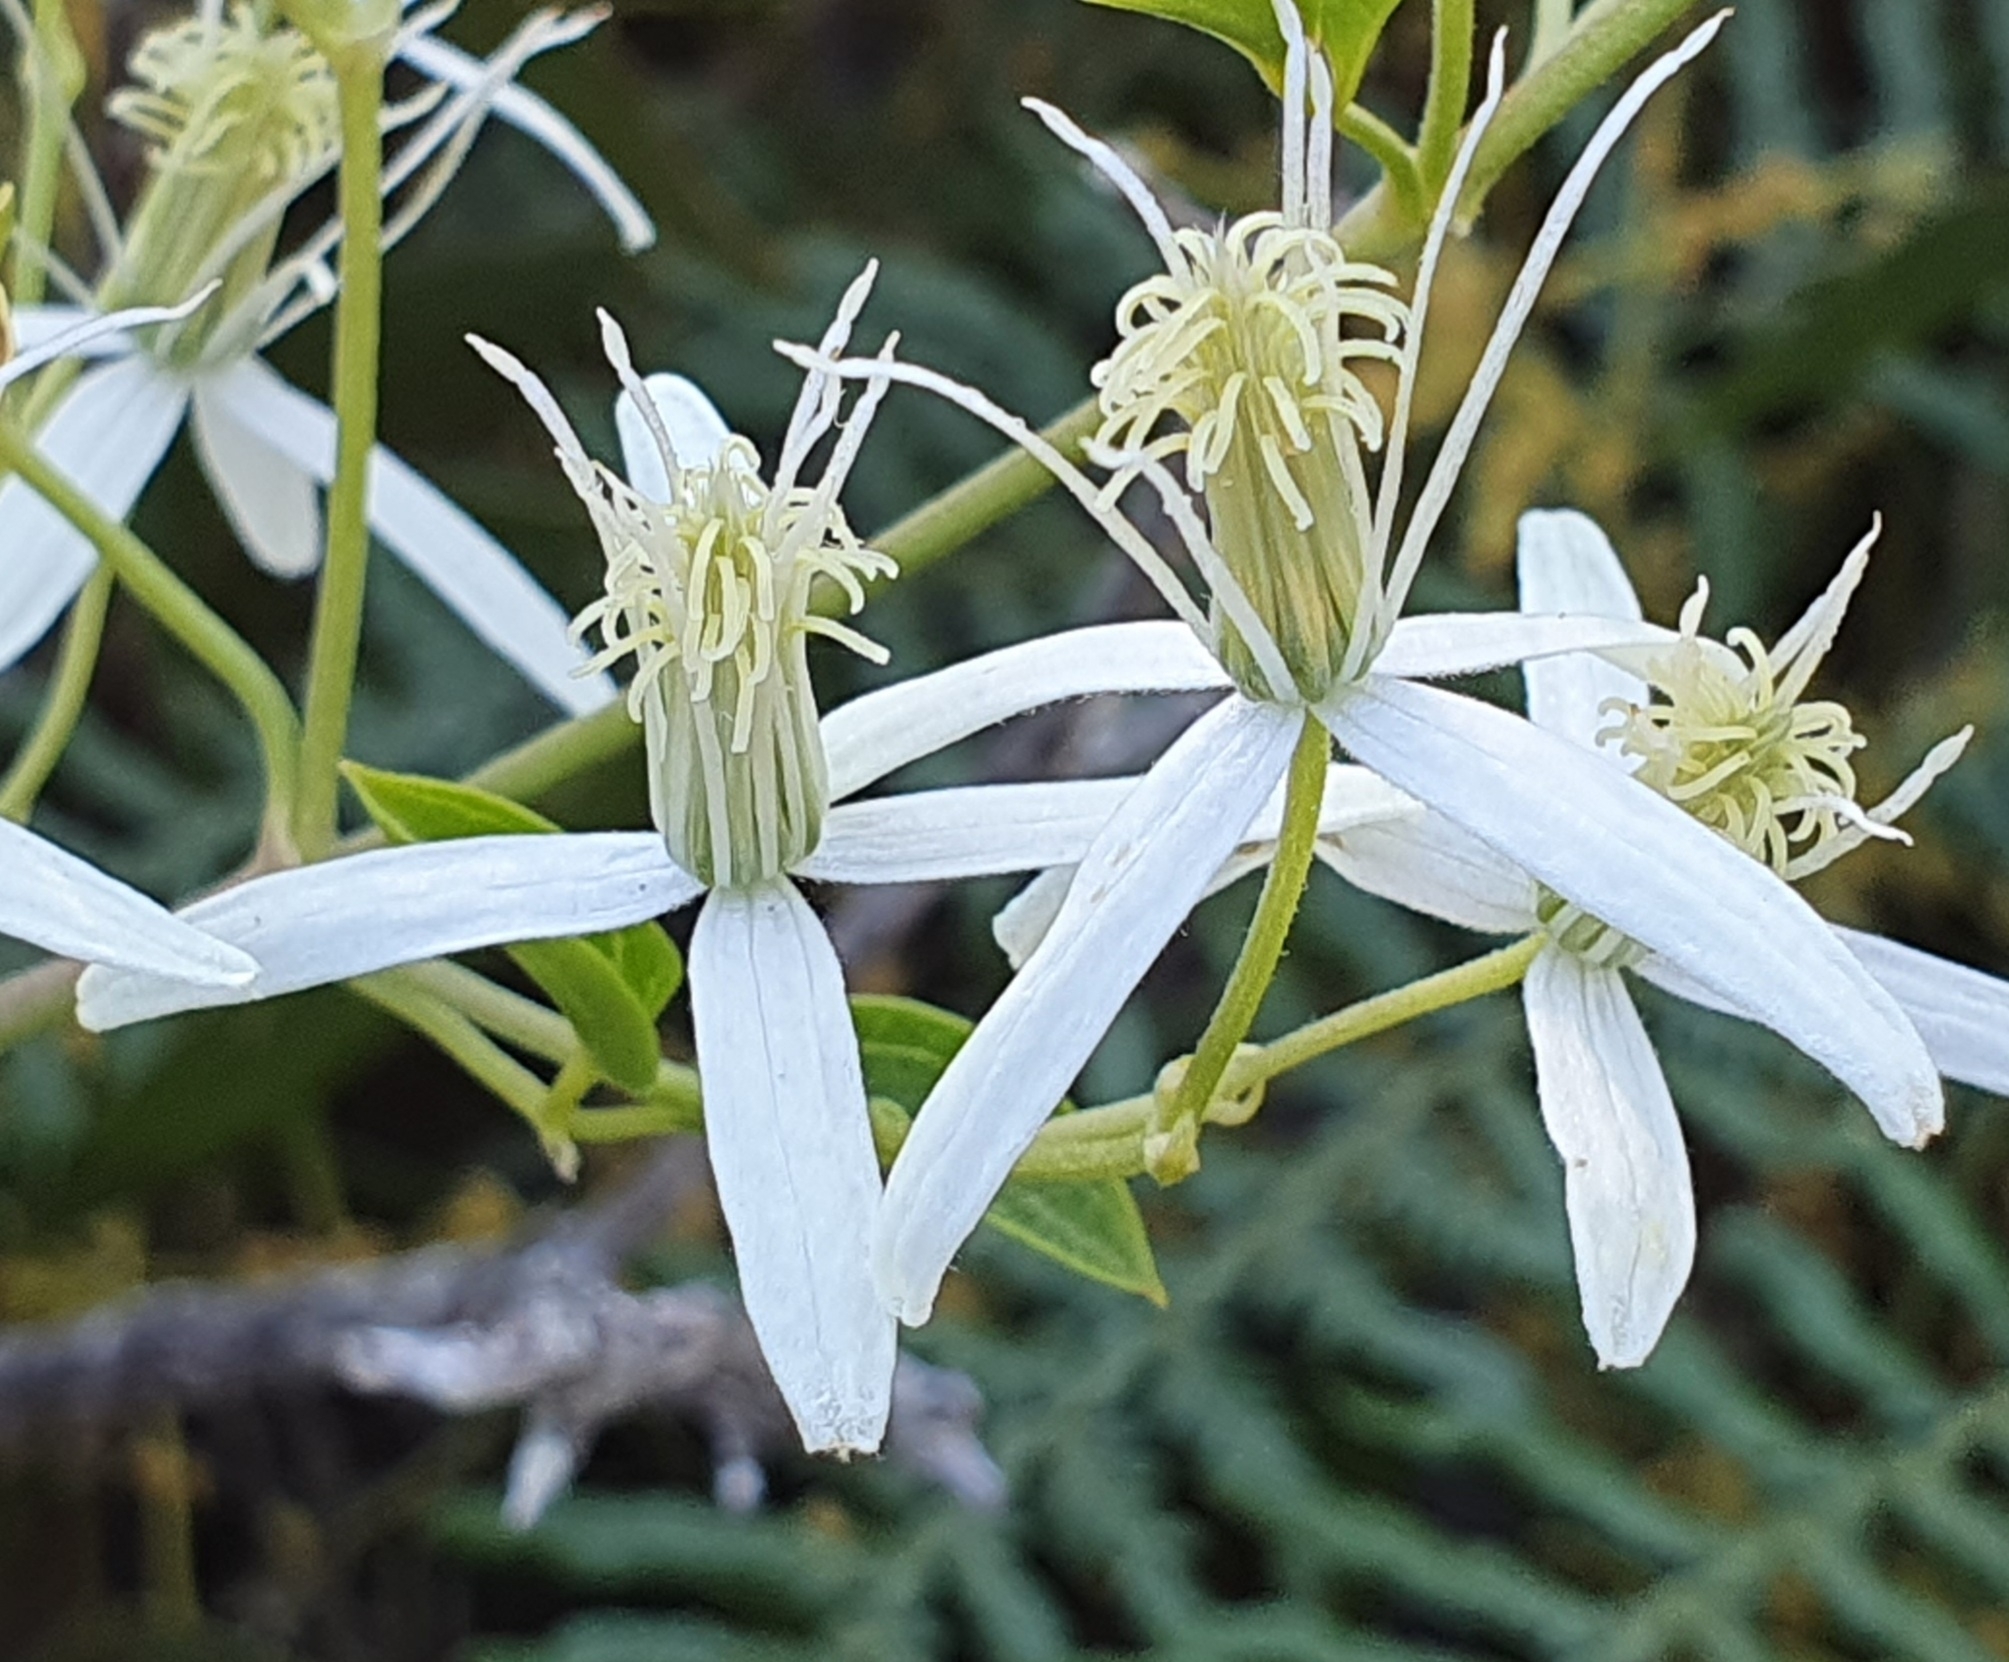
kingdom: Plantae
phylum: Tracheophyta
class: Magnoliopsida
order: Ranunculales
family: Ranunculaceae
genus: Clematis
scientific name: Clematis glycinoides
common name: Forest clematis
